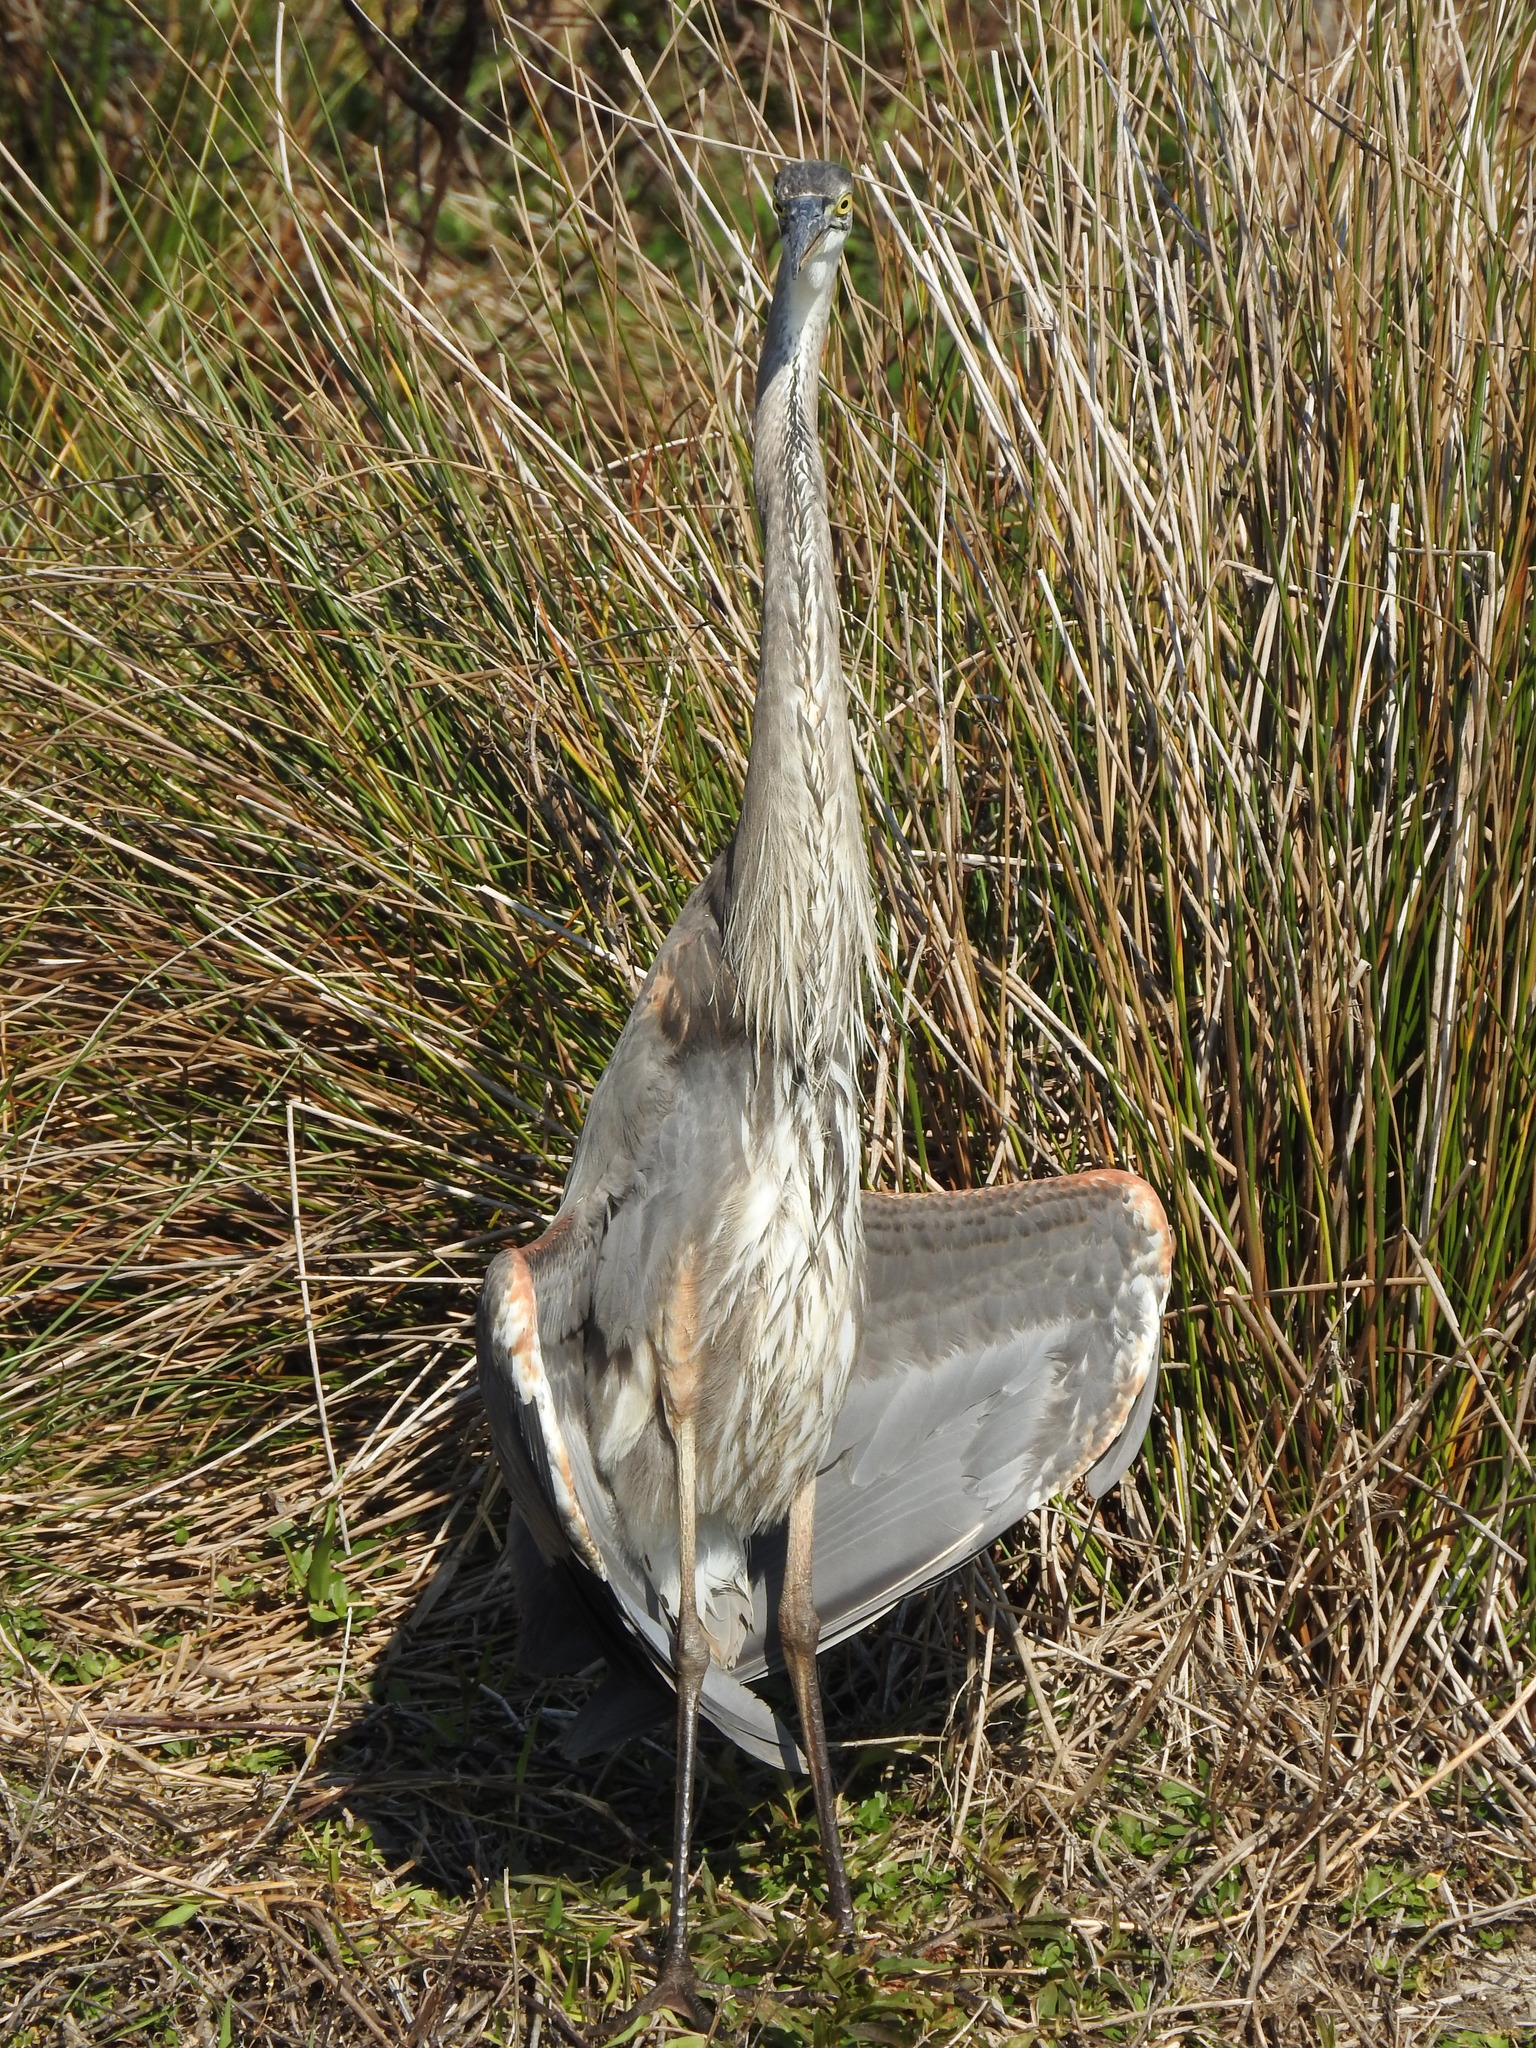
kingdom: Animalia
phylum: Chordata
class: Aves
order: Pelecaniformes
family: Ardeidae
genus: Ardea
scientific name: Ardea herodias
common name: Great blue heron
